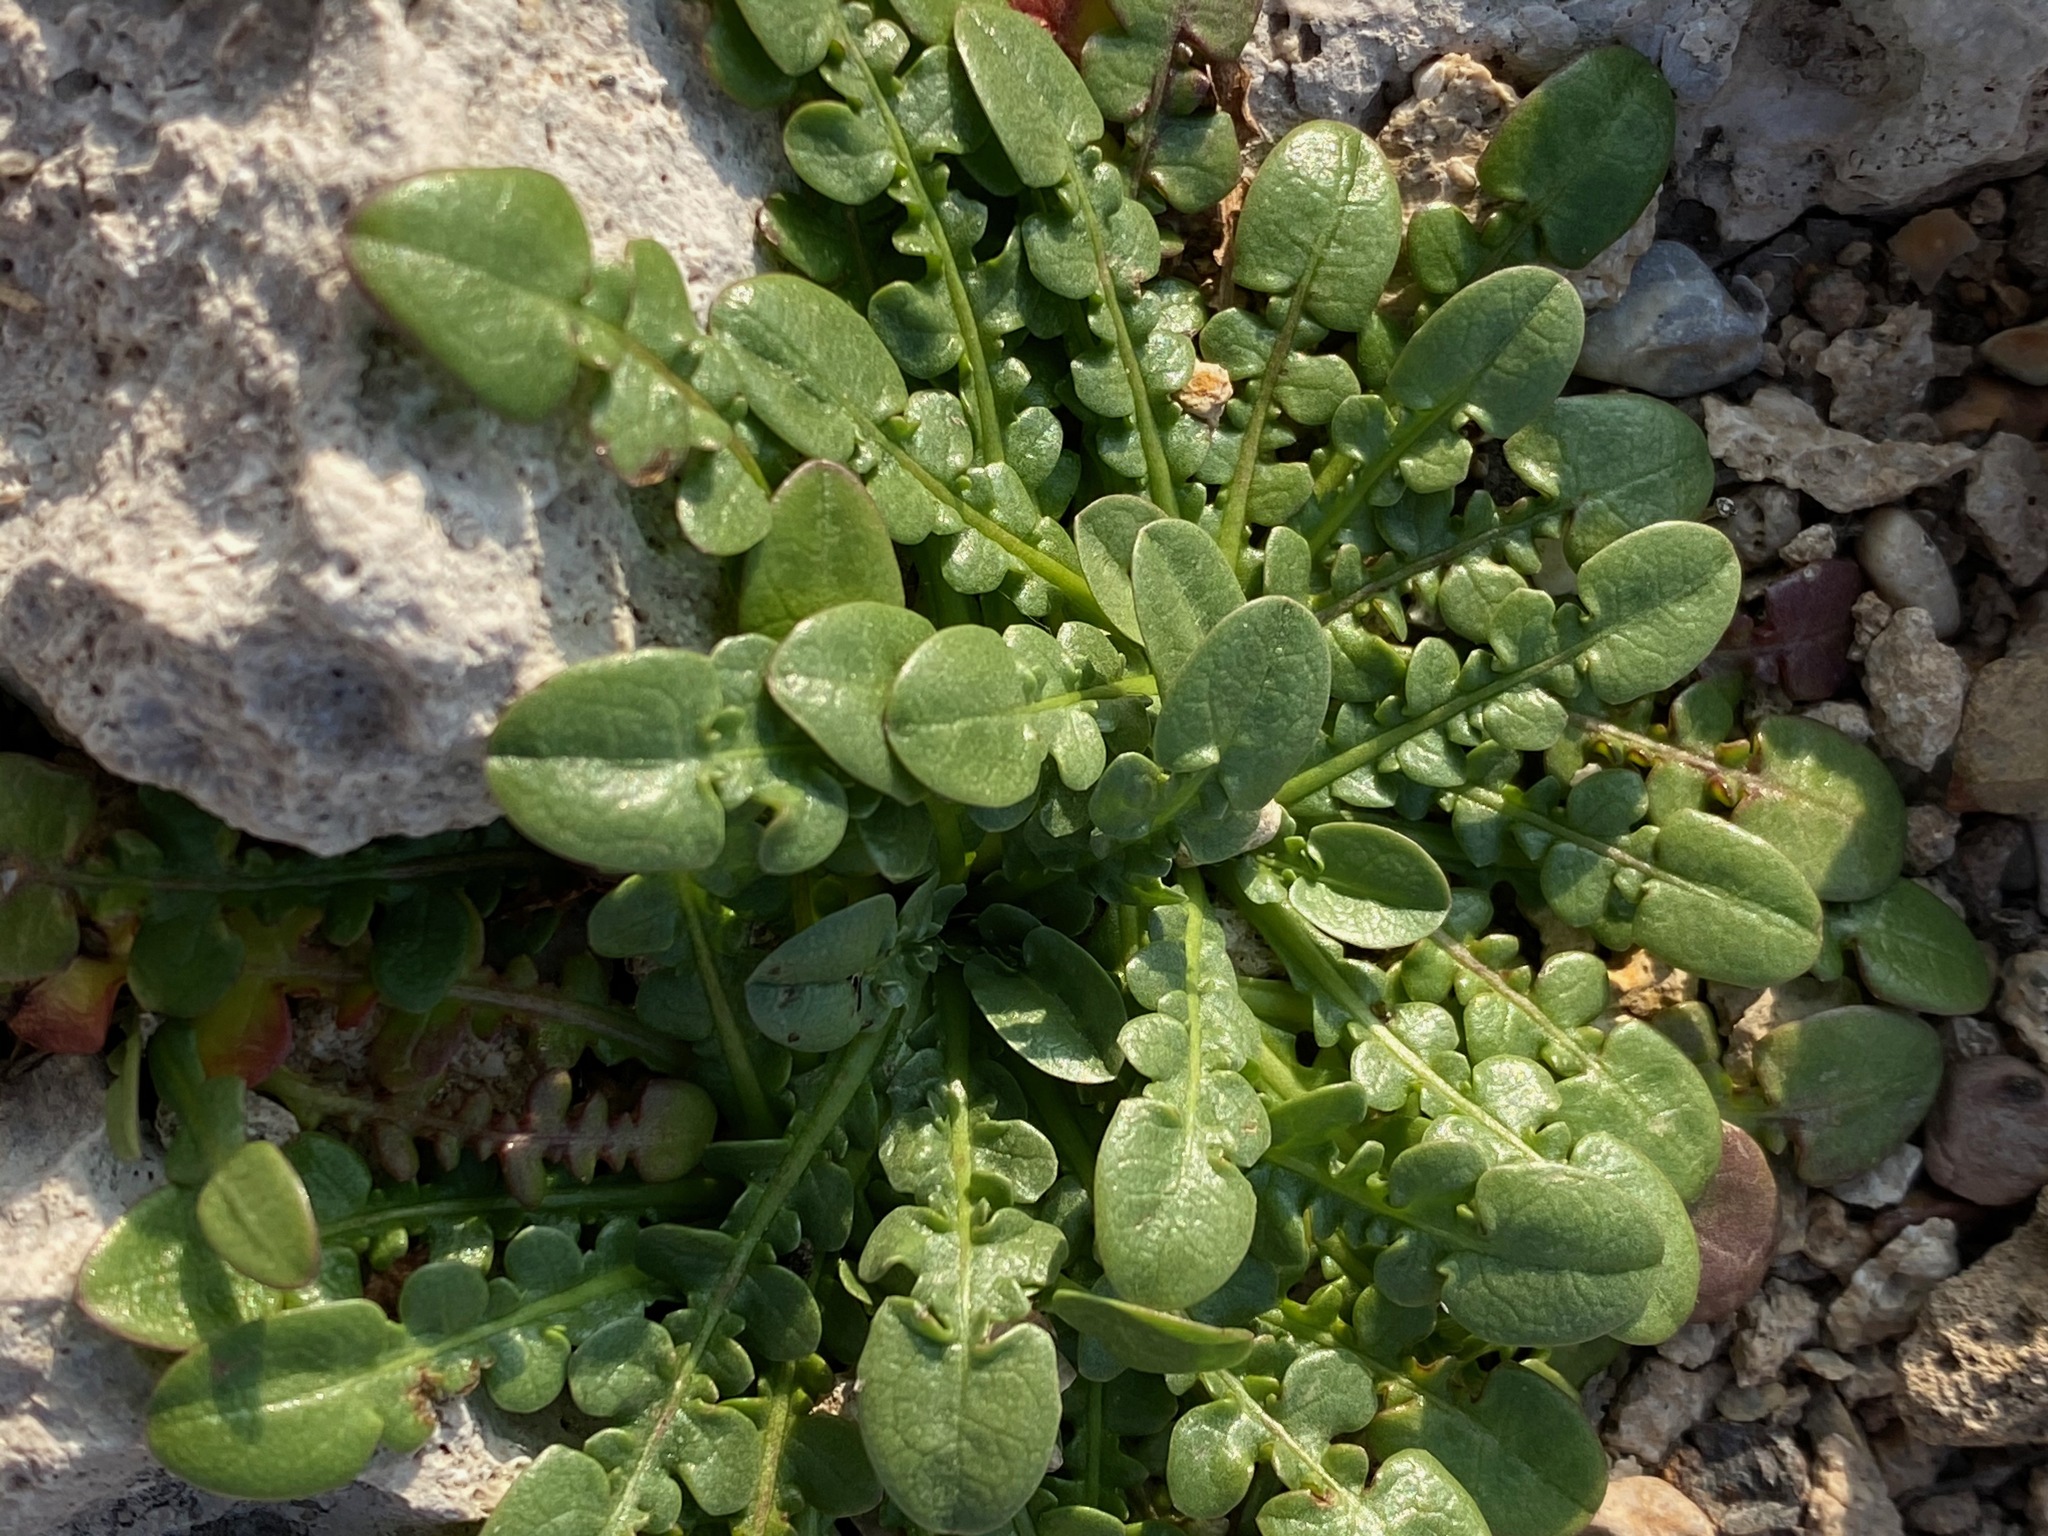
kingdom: Plantae
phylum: Tracheophyta
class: Magnoliopsida
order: Asterales
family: Asteraceae
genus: Taraxacum
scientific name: Taraxacum aphrogenes
